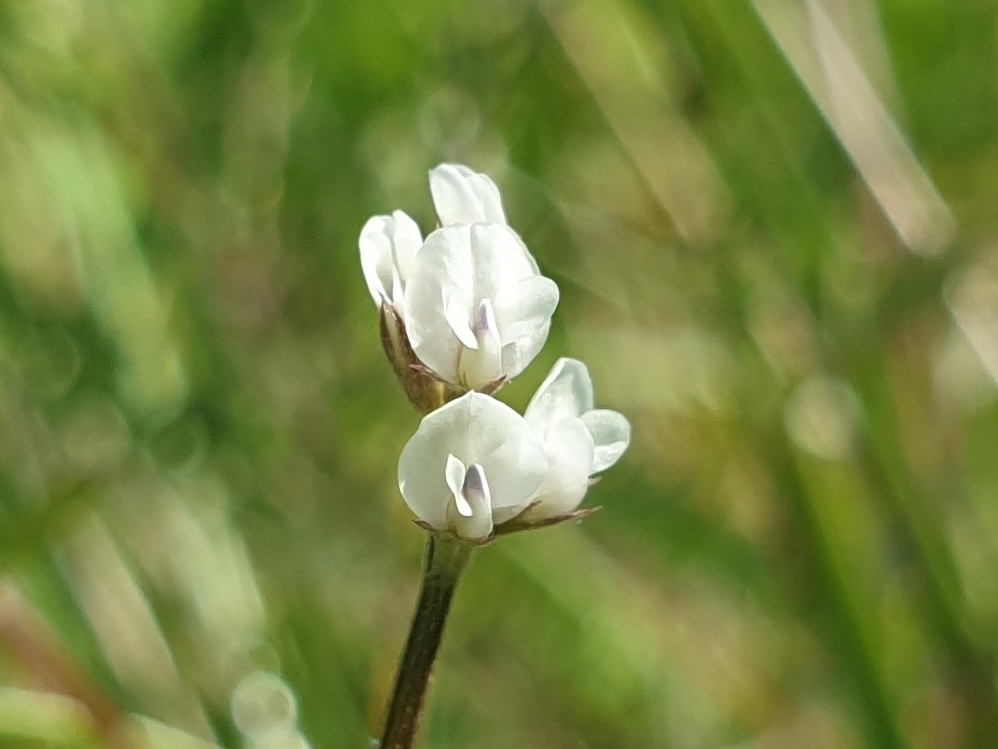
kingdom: Plantae
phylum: Tracheophyta
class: Magnoliopsida
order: Fabales
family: Fabaceae
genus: Vicia
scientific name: Vicia hirsuta
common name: Tiny vetch
